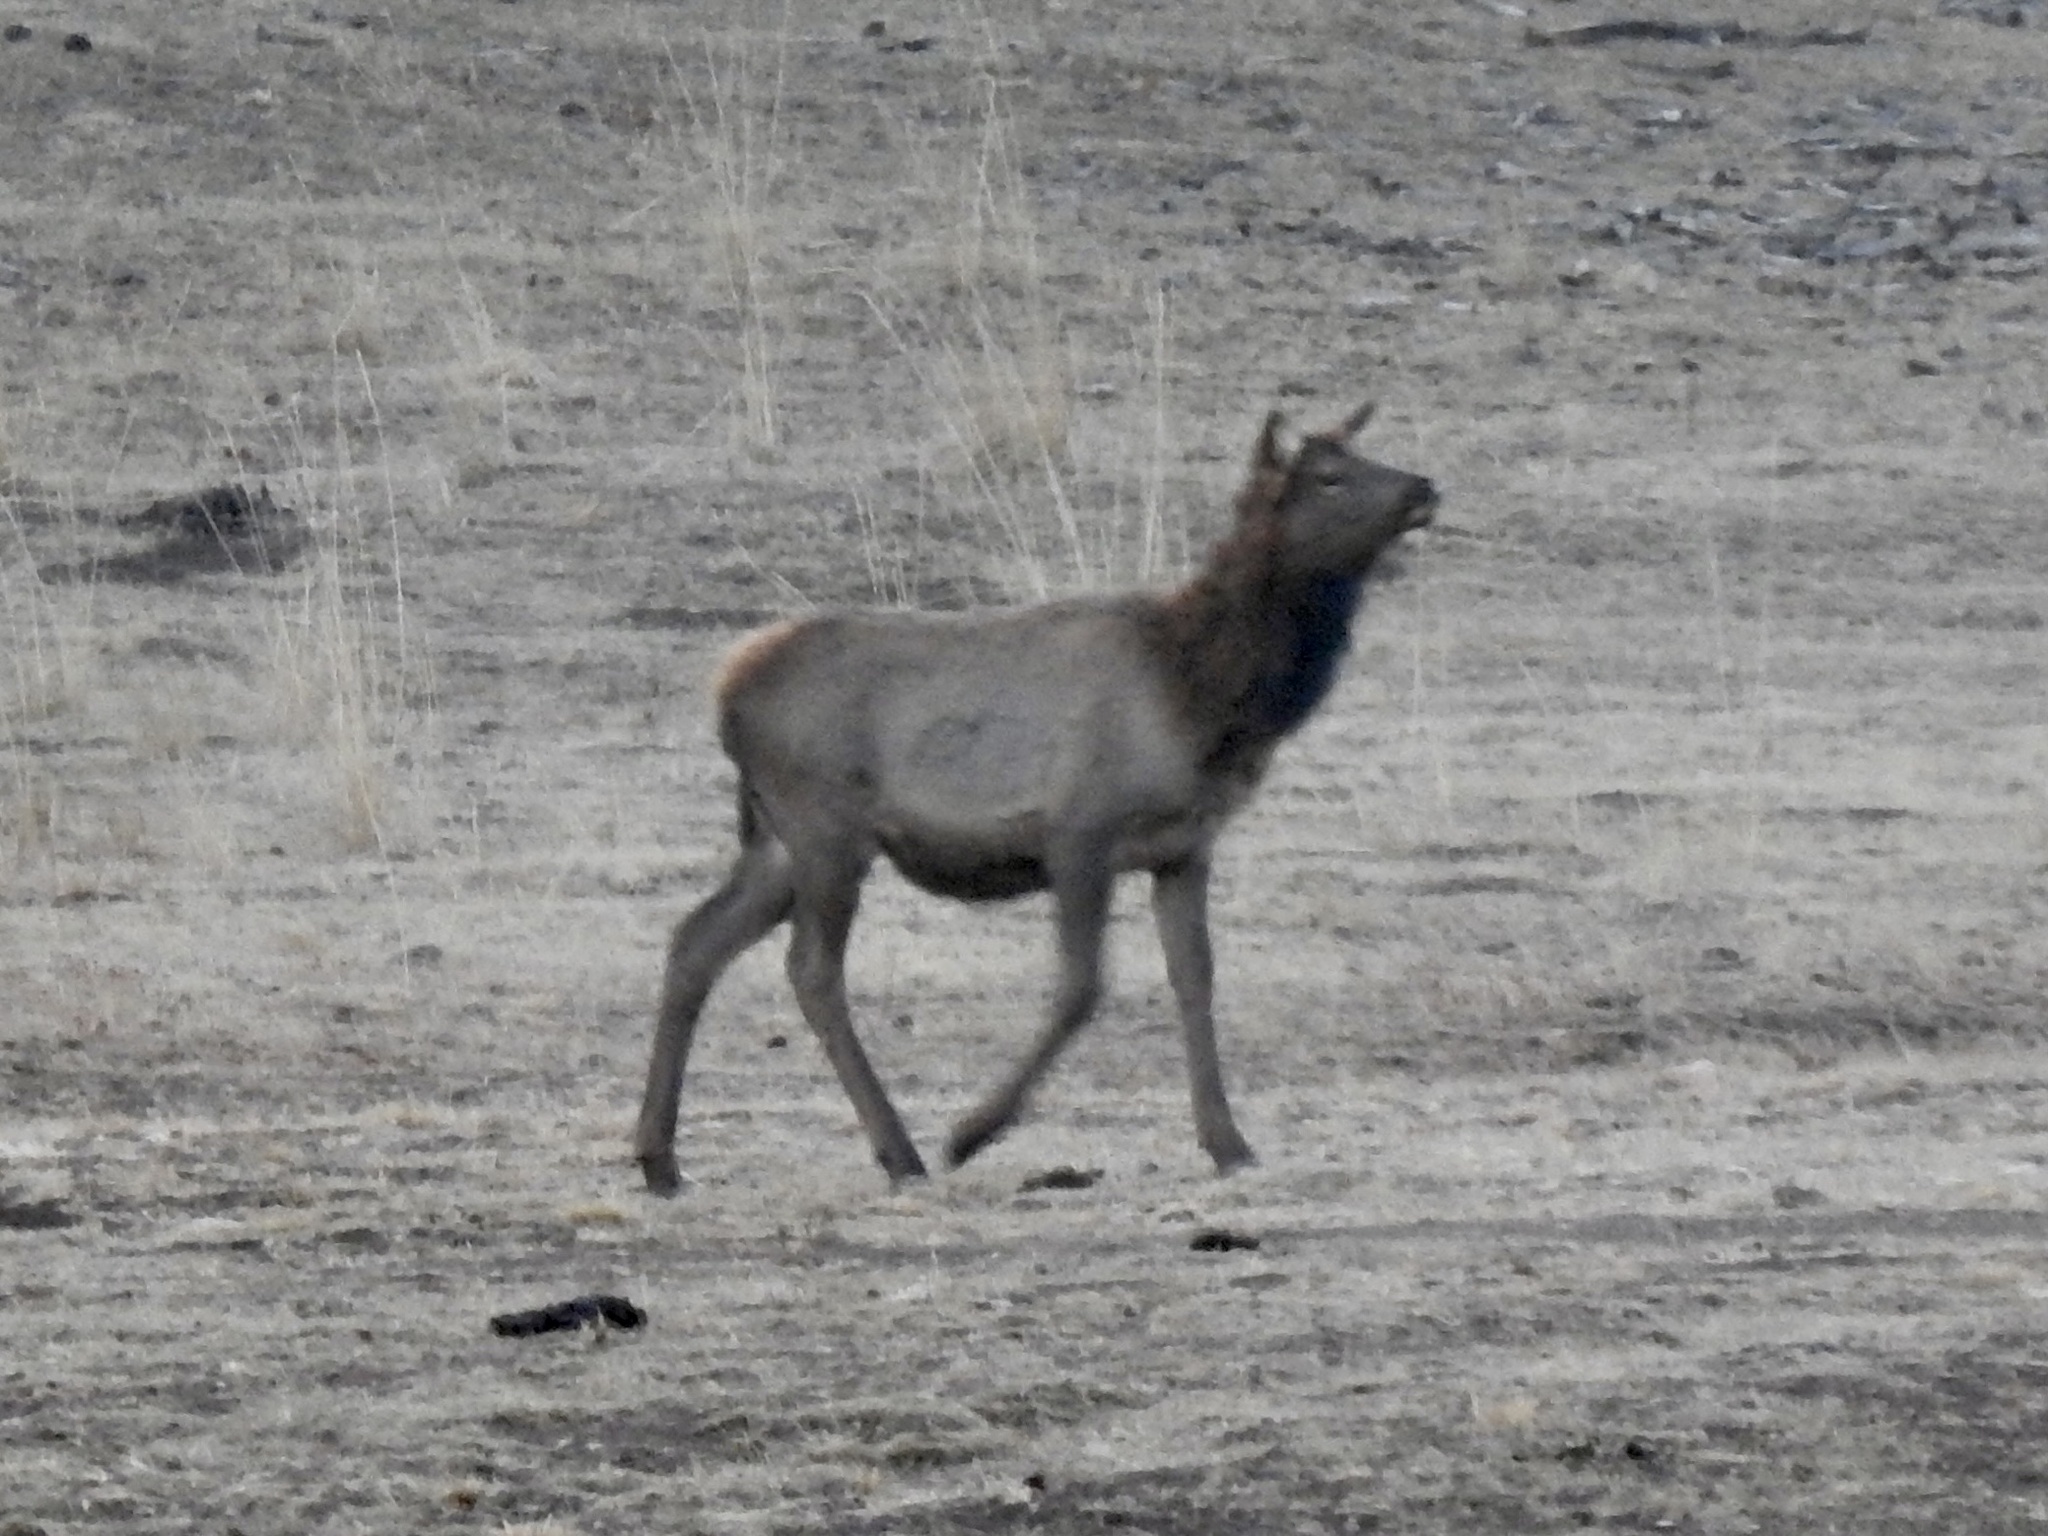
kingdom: Animalia
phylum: Chordata
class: Mammalia
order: Artiodactyla
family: Cervidae
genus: Cervus
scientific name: Cervus elaphus
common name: Red deer
